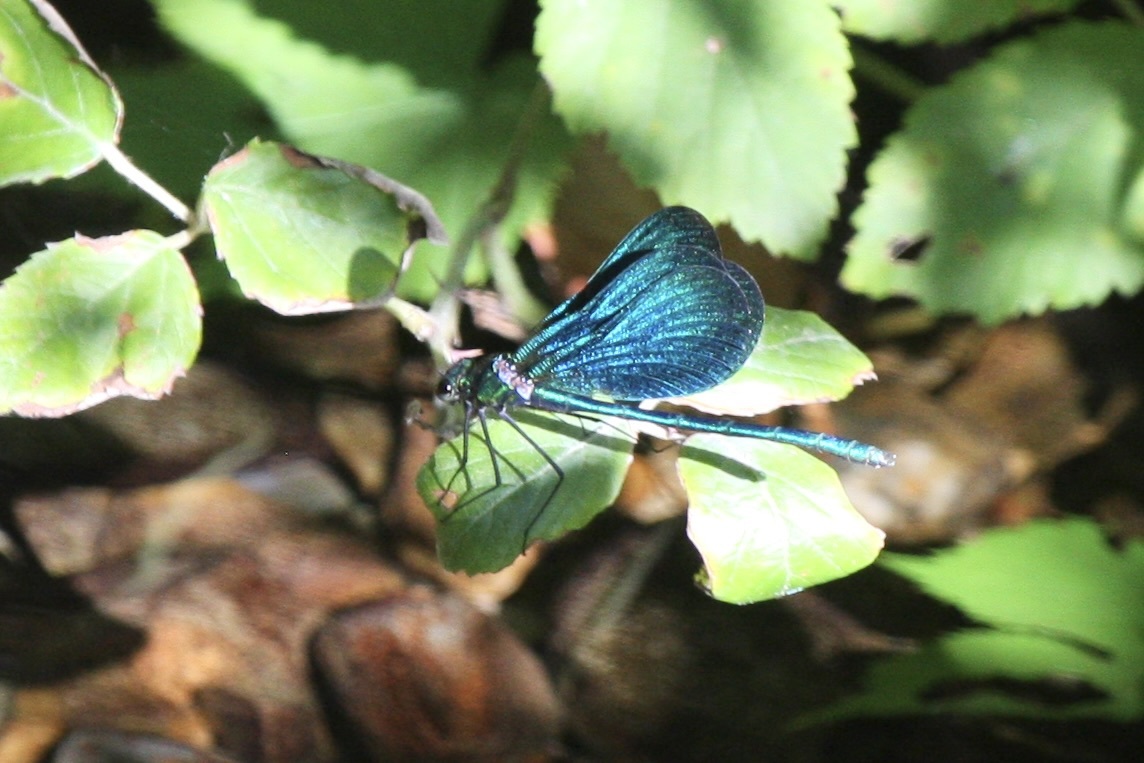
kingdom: Animalia
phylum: Arthropoda
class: Insecta
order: Odonata
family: Calopterygidae
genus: Calopteryx
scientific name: Calopteryx virgo
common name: Beautiful demoiselle
